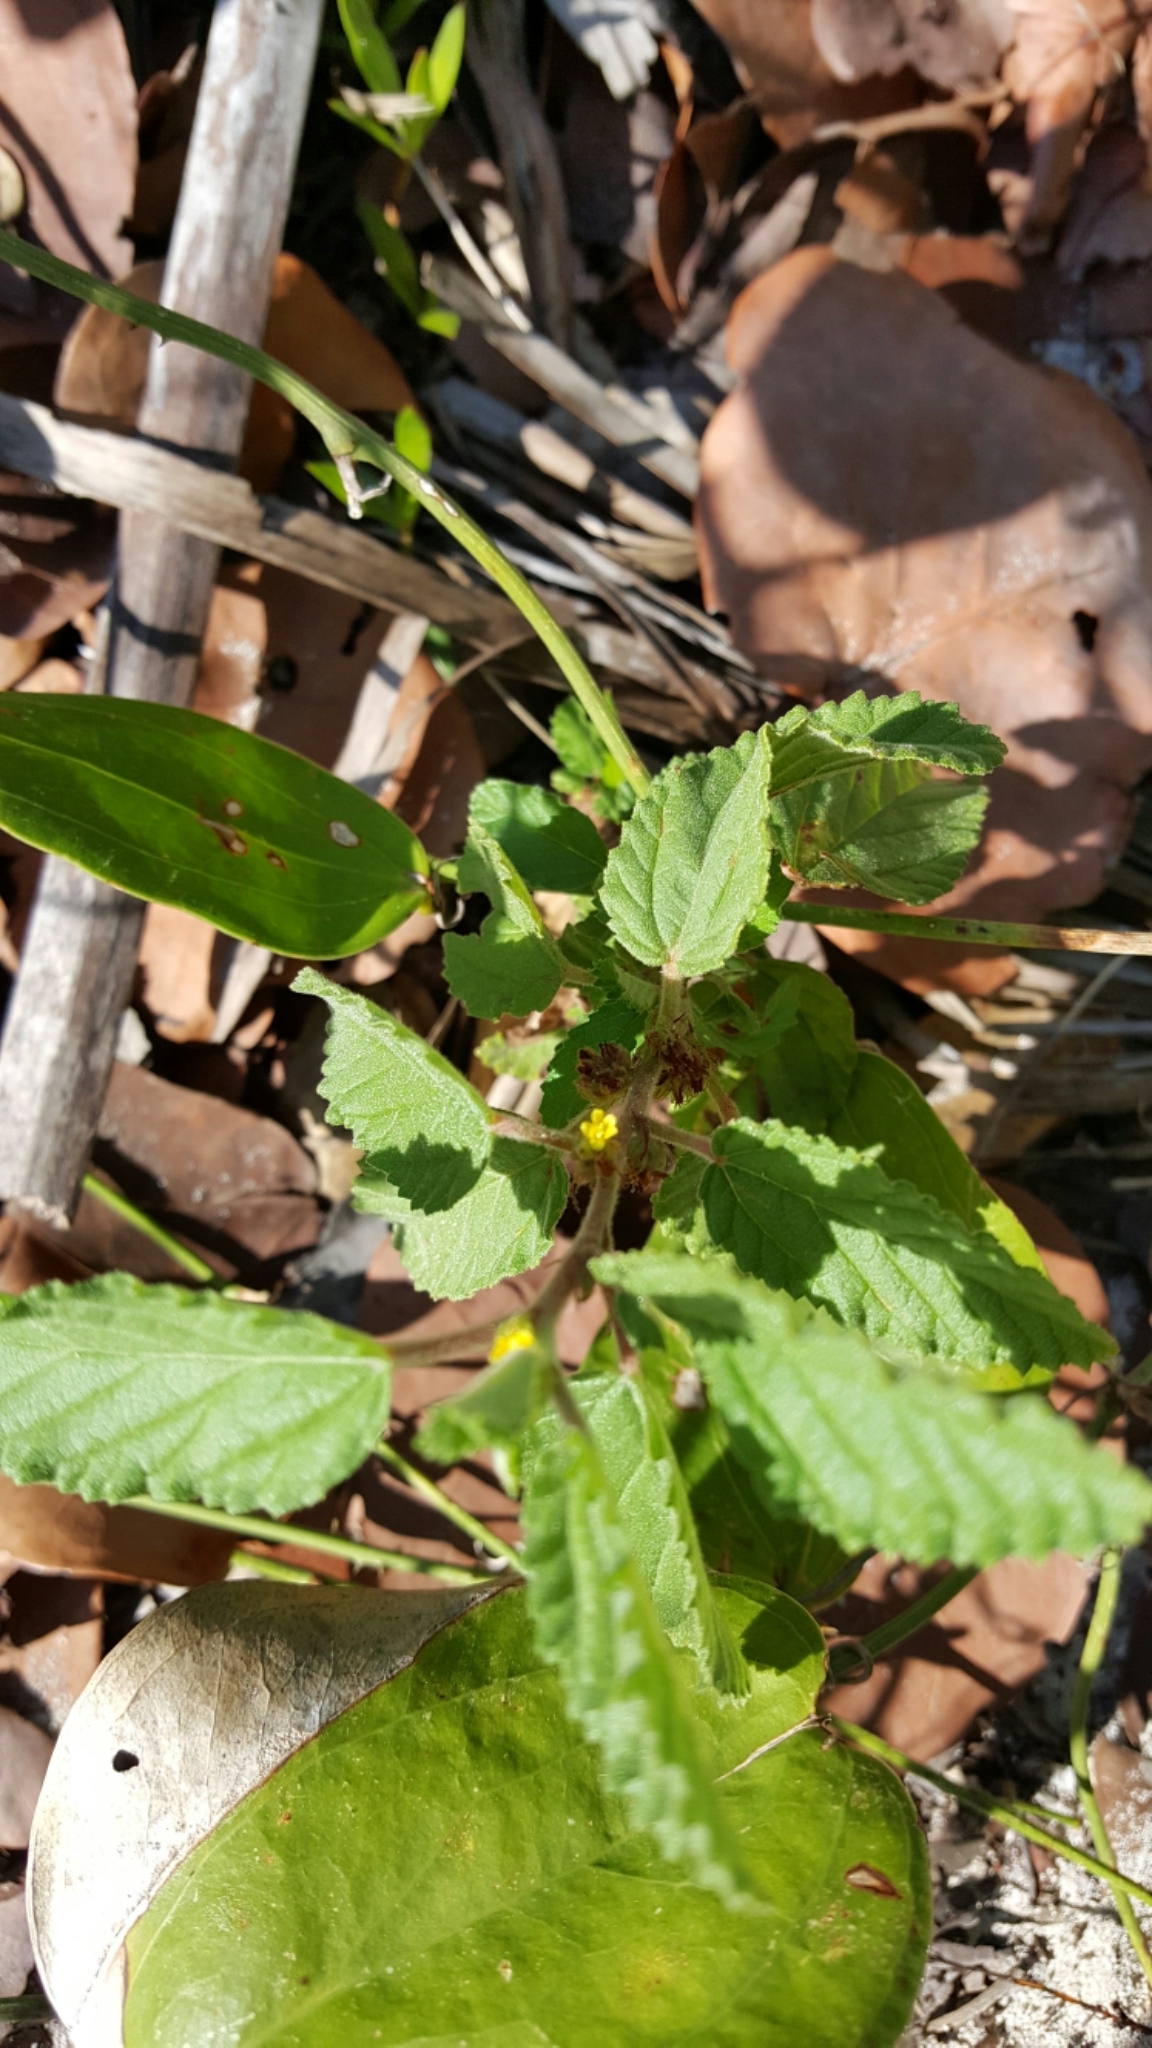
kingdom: Plantae
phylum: Tracheophyta
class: Magnoliopsida
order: Malvales
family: Malvaceae
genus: Waltheria
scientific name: Waltheria indica
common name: Leather-coat
